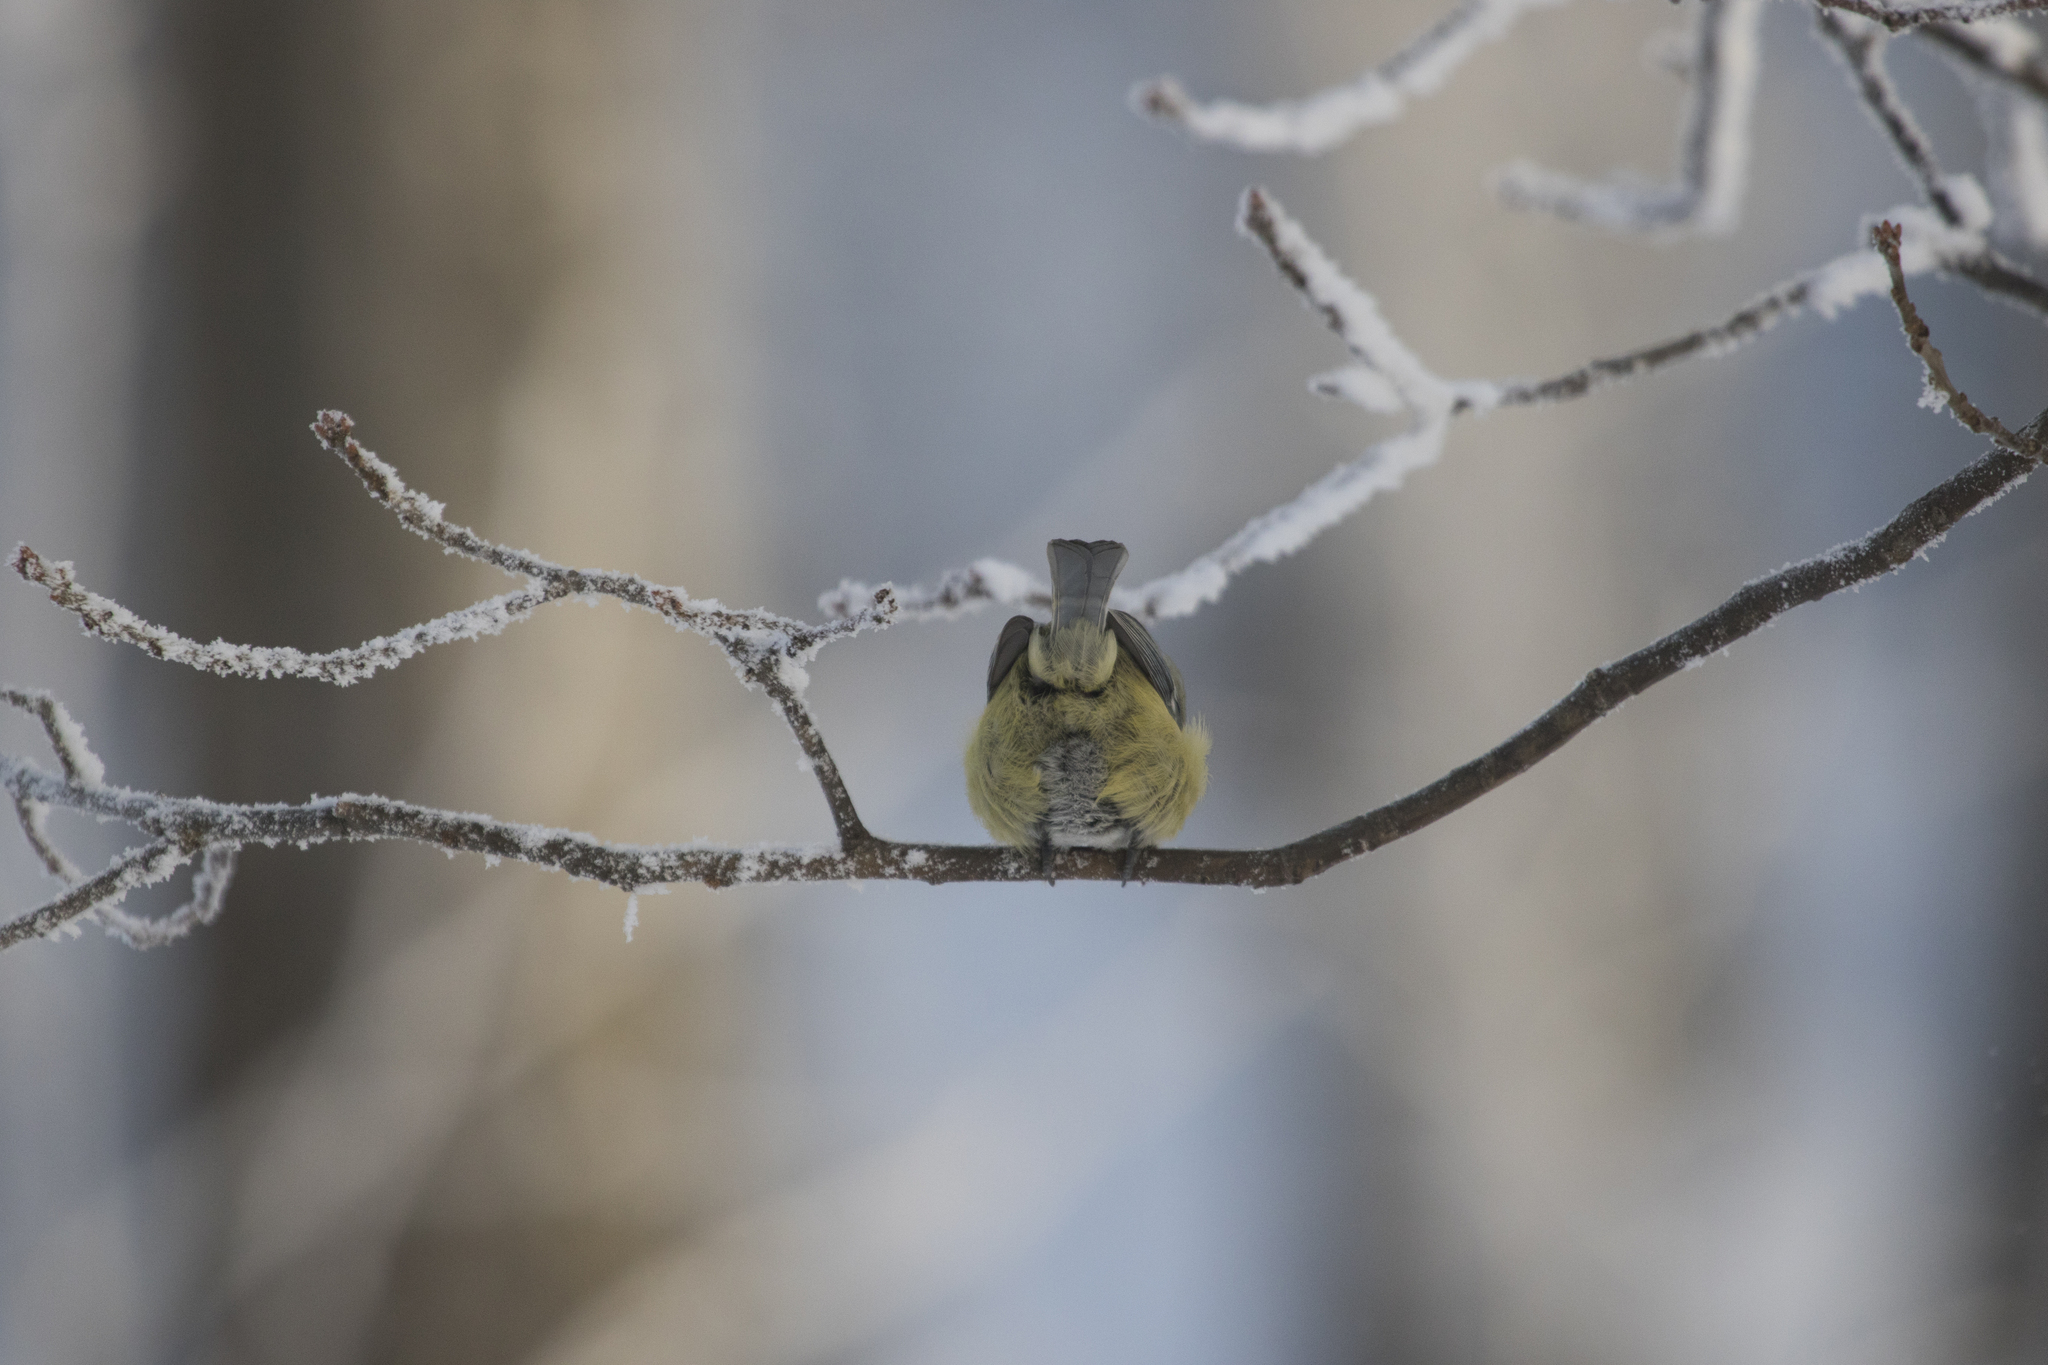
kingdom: Animalia
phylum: Chordata
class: Aves
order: Passeriformes
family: Paridae
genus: Cyanistes
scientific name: Cyanistes caeruleus
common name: Eurasian blue tit
